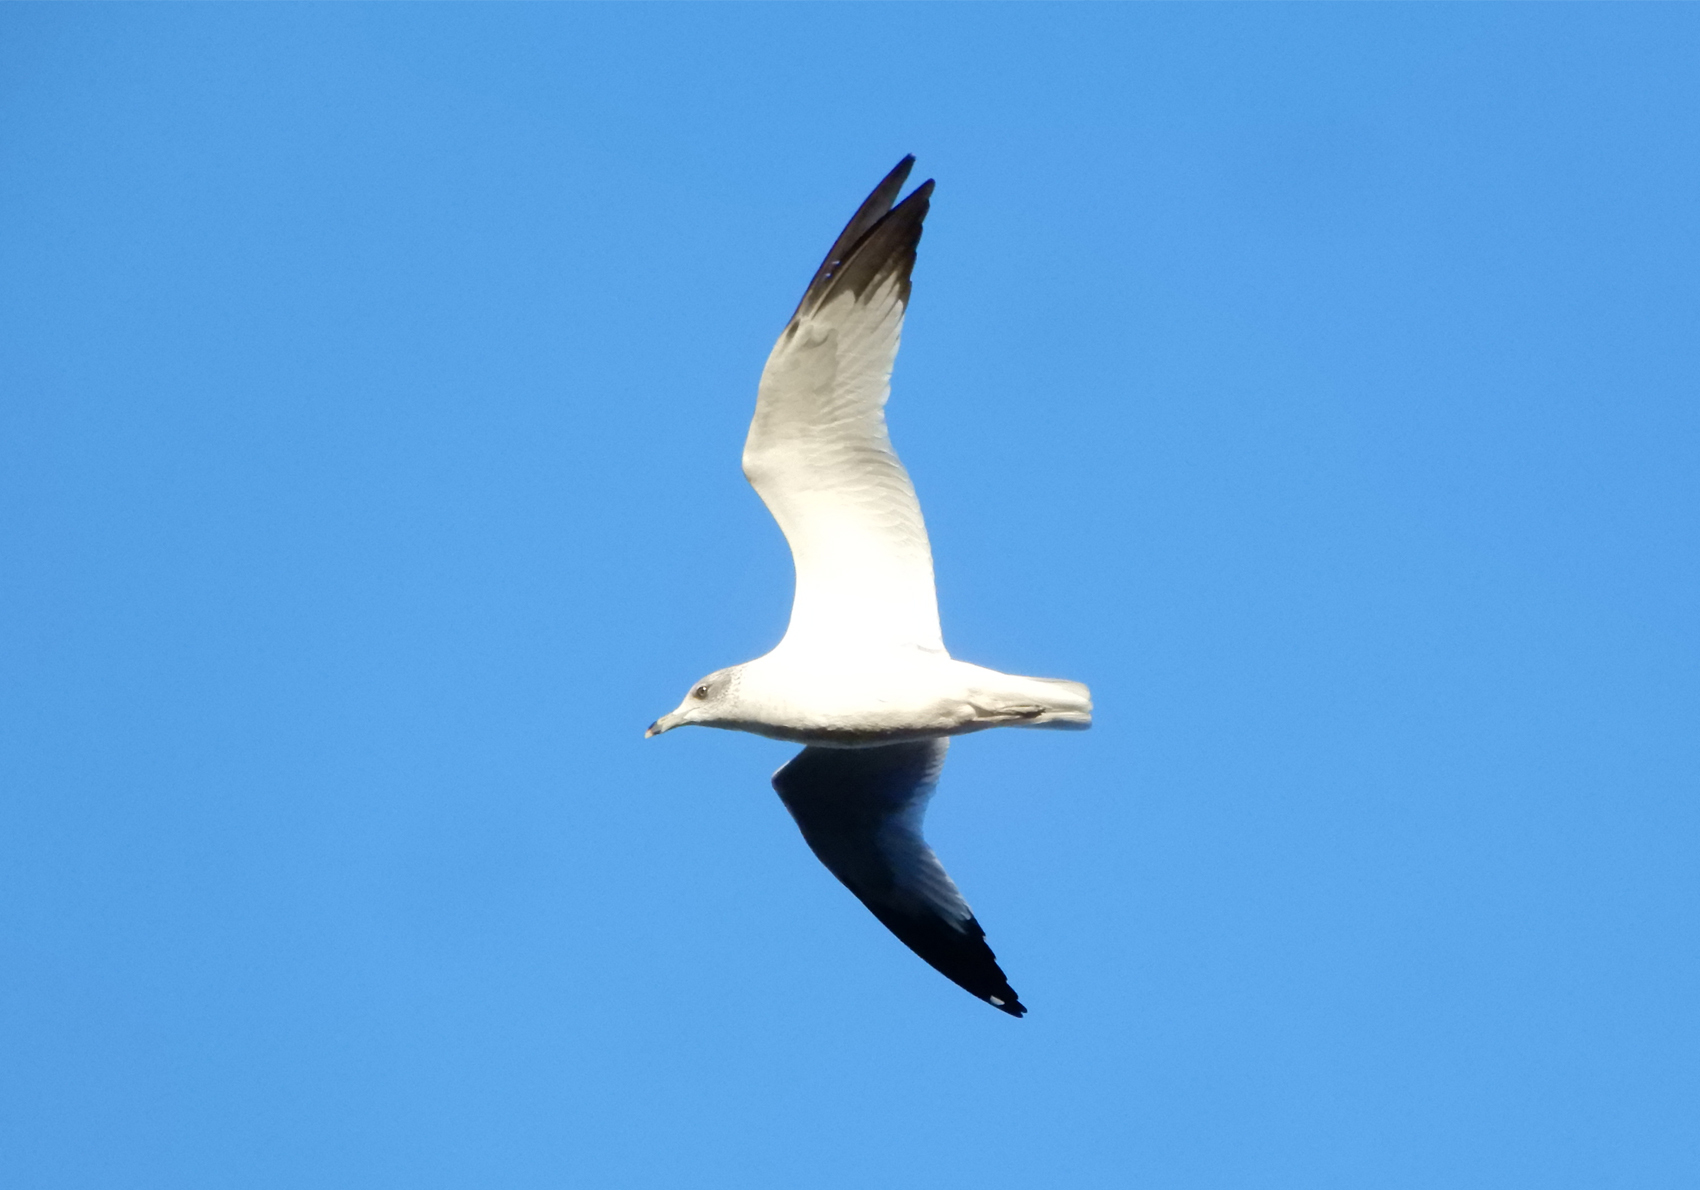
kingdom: Animalia
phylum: Chordata
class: Aves
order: Charadriiformes
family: Laridae
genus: Larus
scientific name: Larus delawarensis
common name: Ring-billed gull
